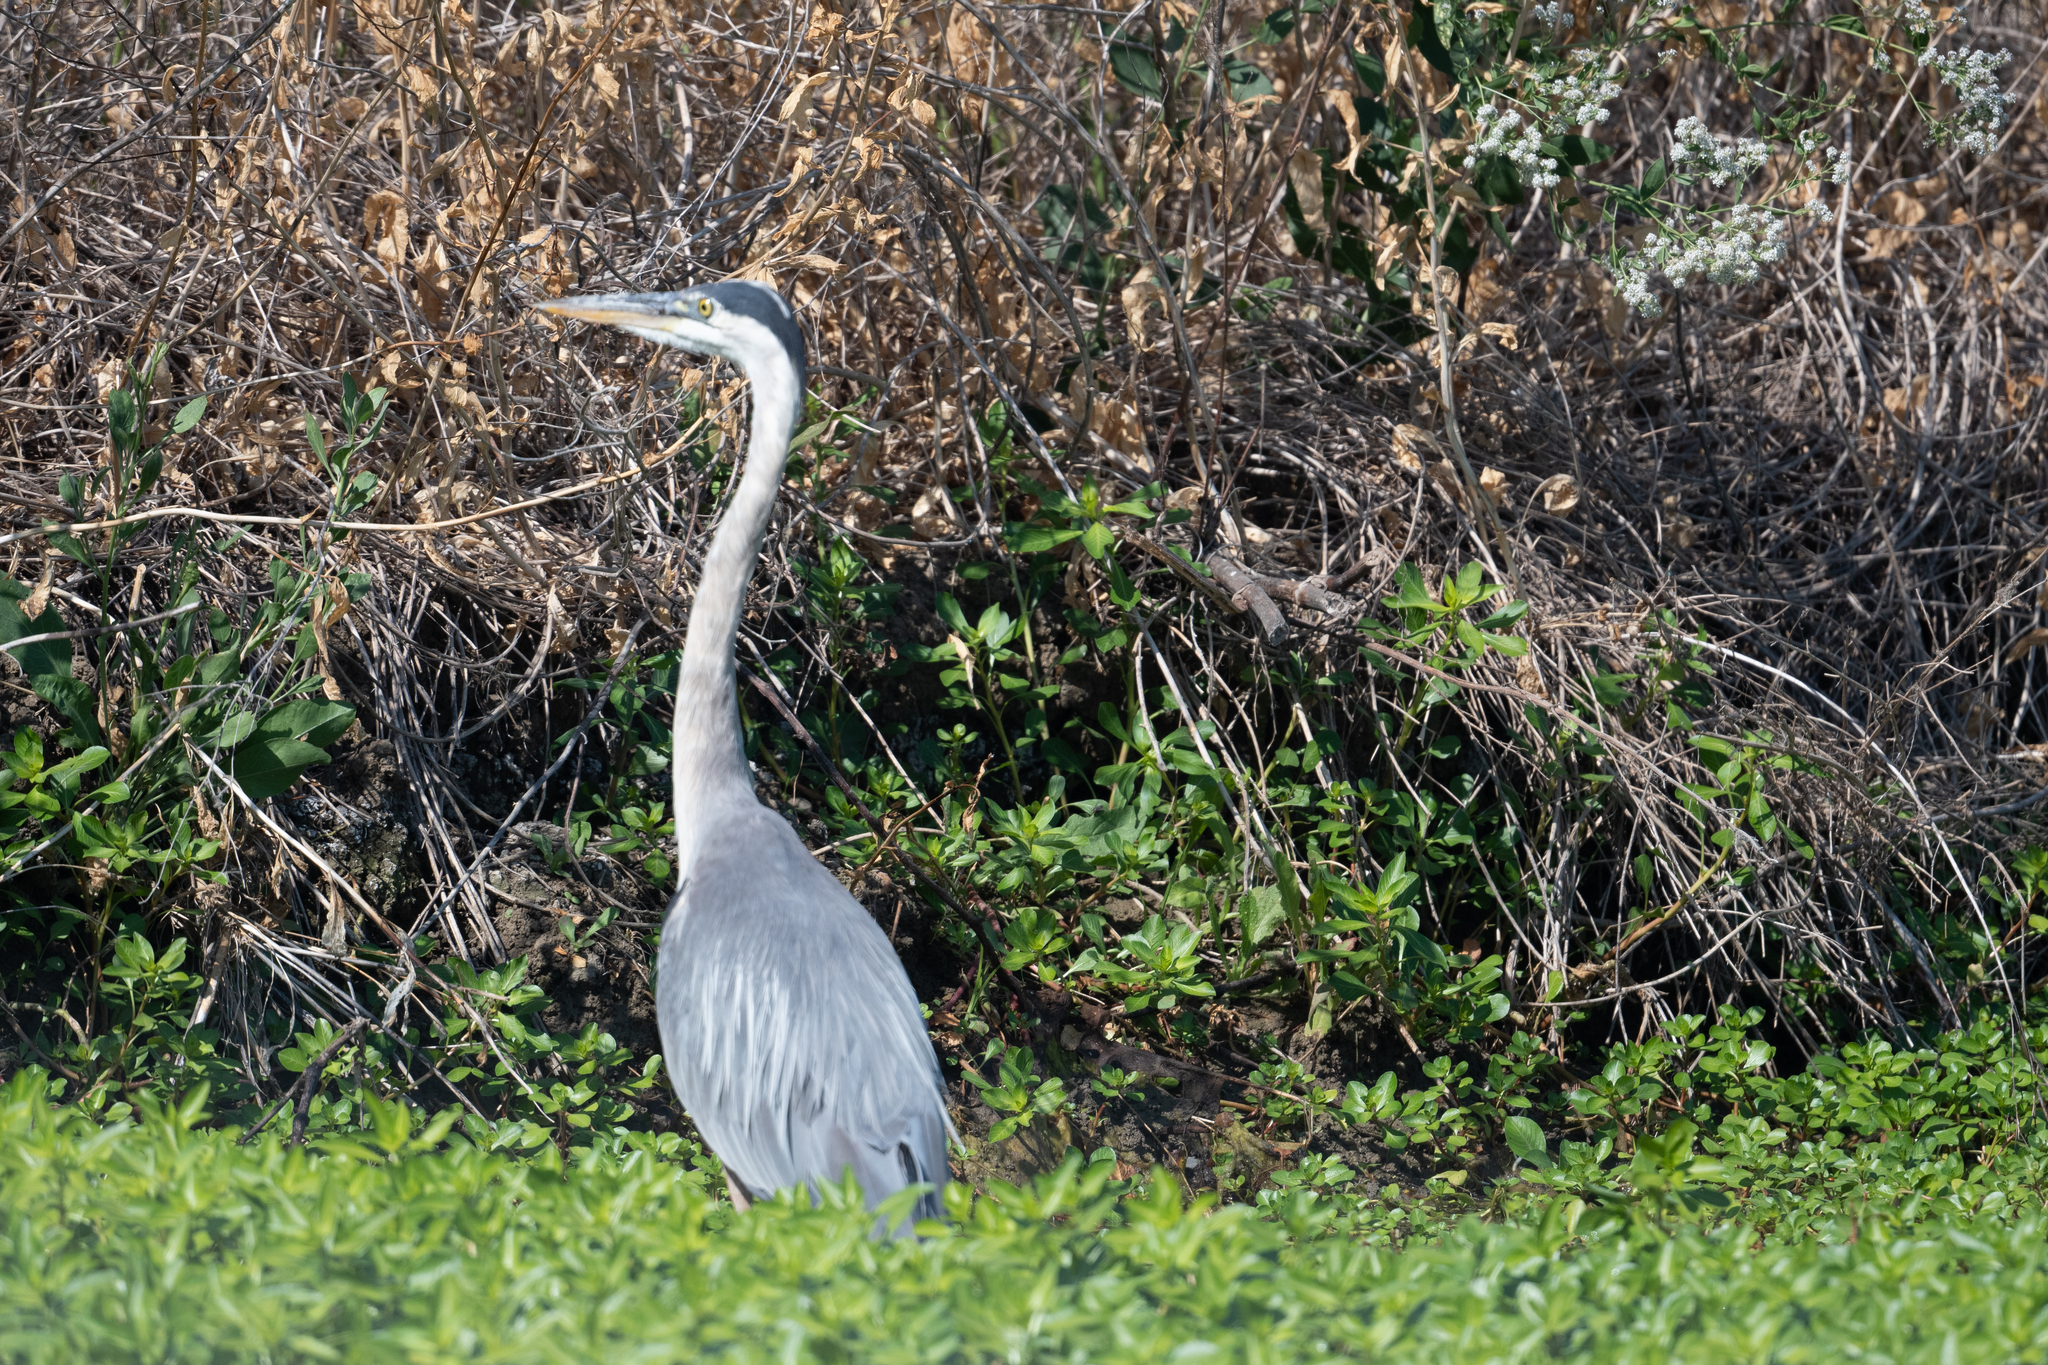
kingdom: Animalia
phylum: Chordata
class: Aves
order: Pelecaniformes
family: Ardeidae
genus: Ardea
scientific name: Ardea herodias
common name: Great blue heron
